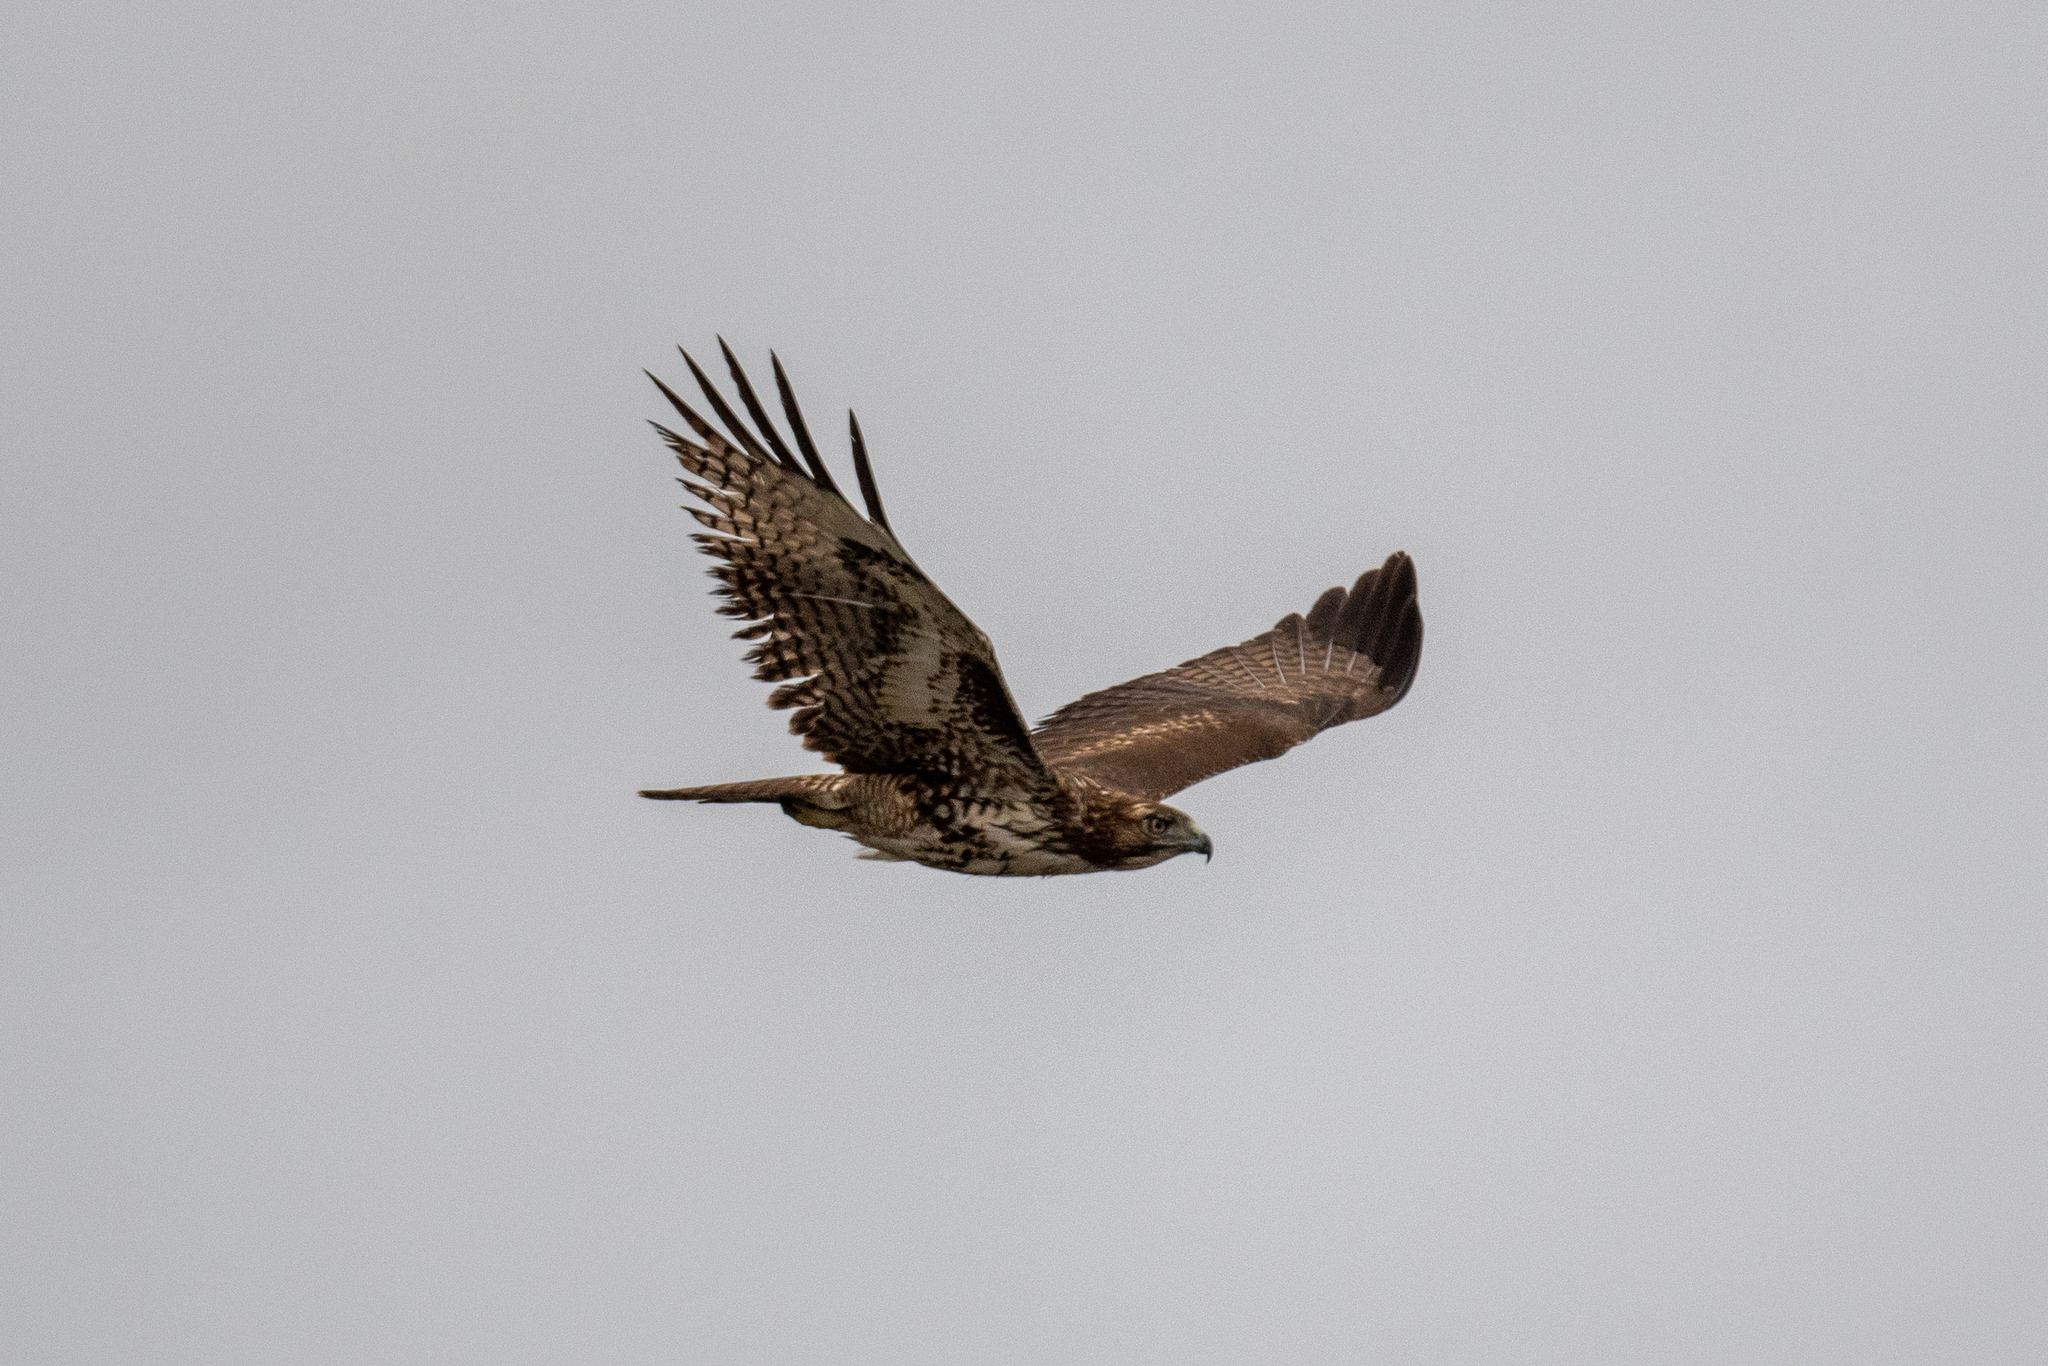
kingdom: Animalia
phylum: Chordata
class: Aves
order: Accipitriformes
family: Accipitridae
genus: Buteo
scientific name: Buteo jamaicensis
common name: Red-tailed hawk
